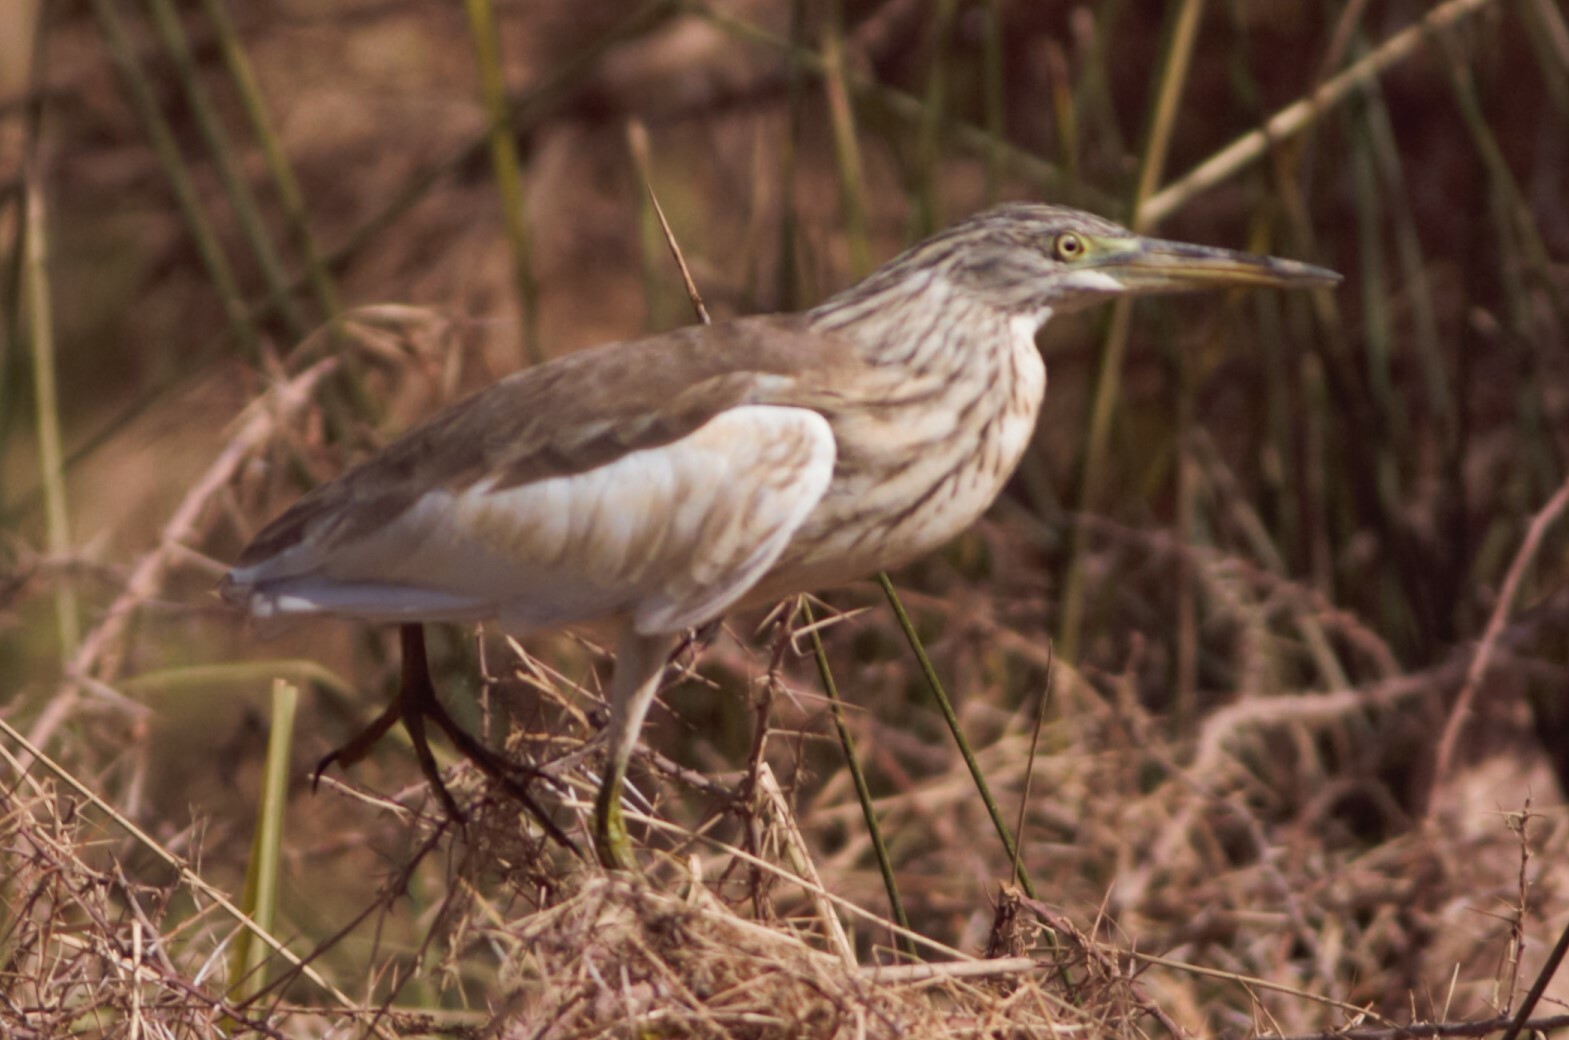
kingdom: Animalia
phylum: Chordata
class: Aves
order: Pelecaniformes
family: Ardeidae
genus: Ardeola
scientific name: Ardeola ralloides
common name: Squacco heron
